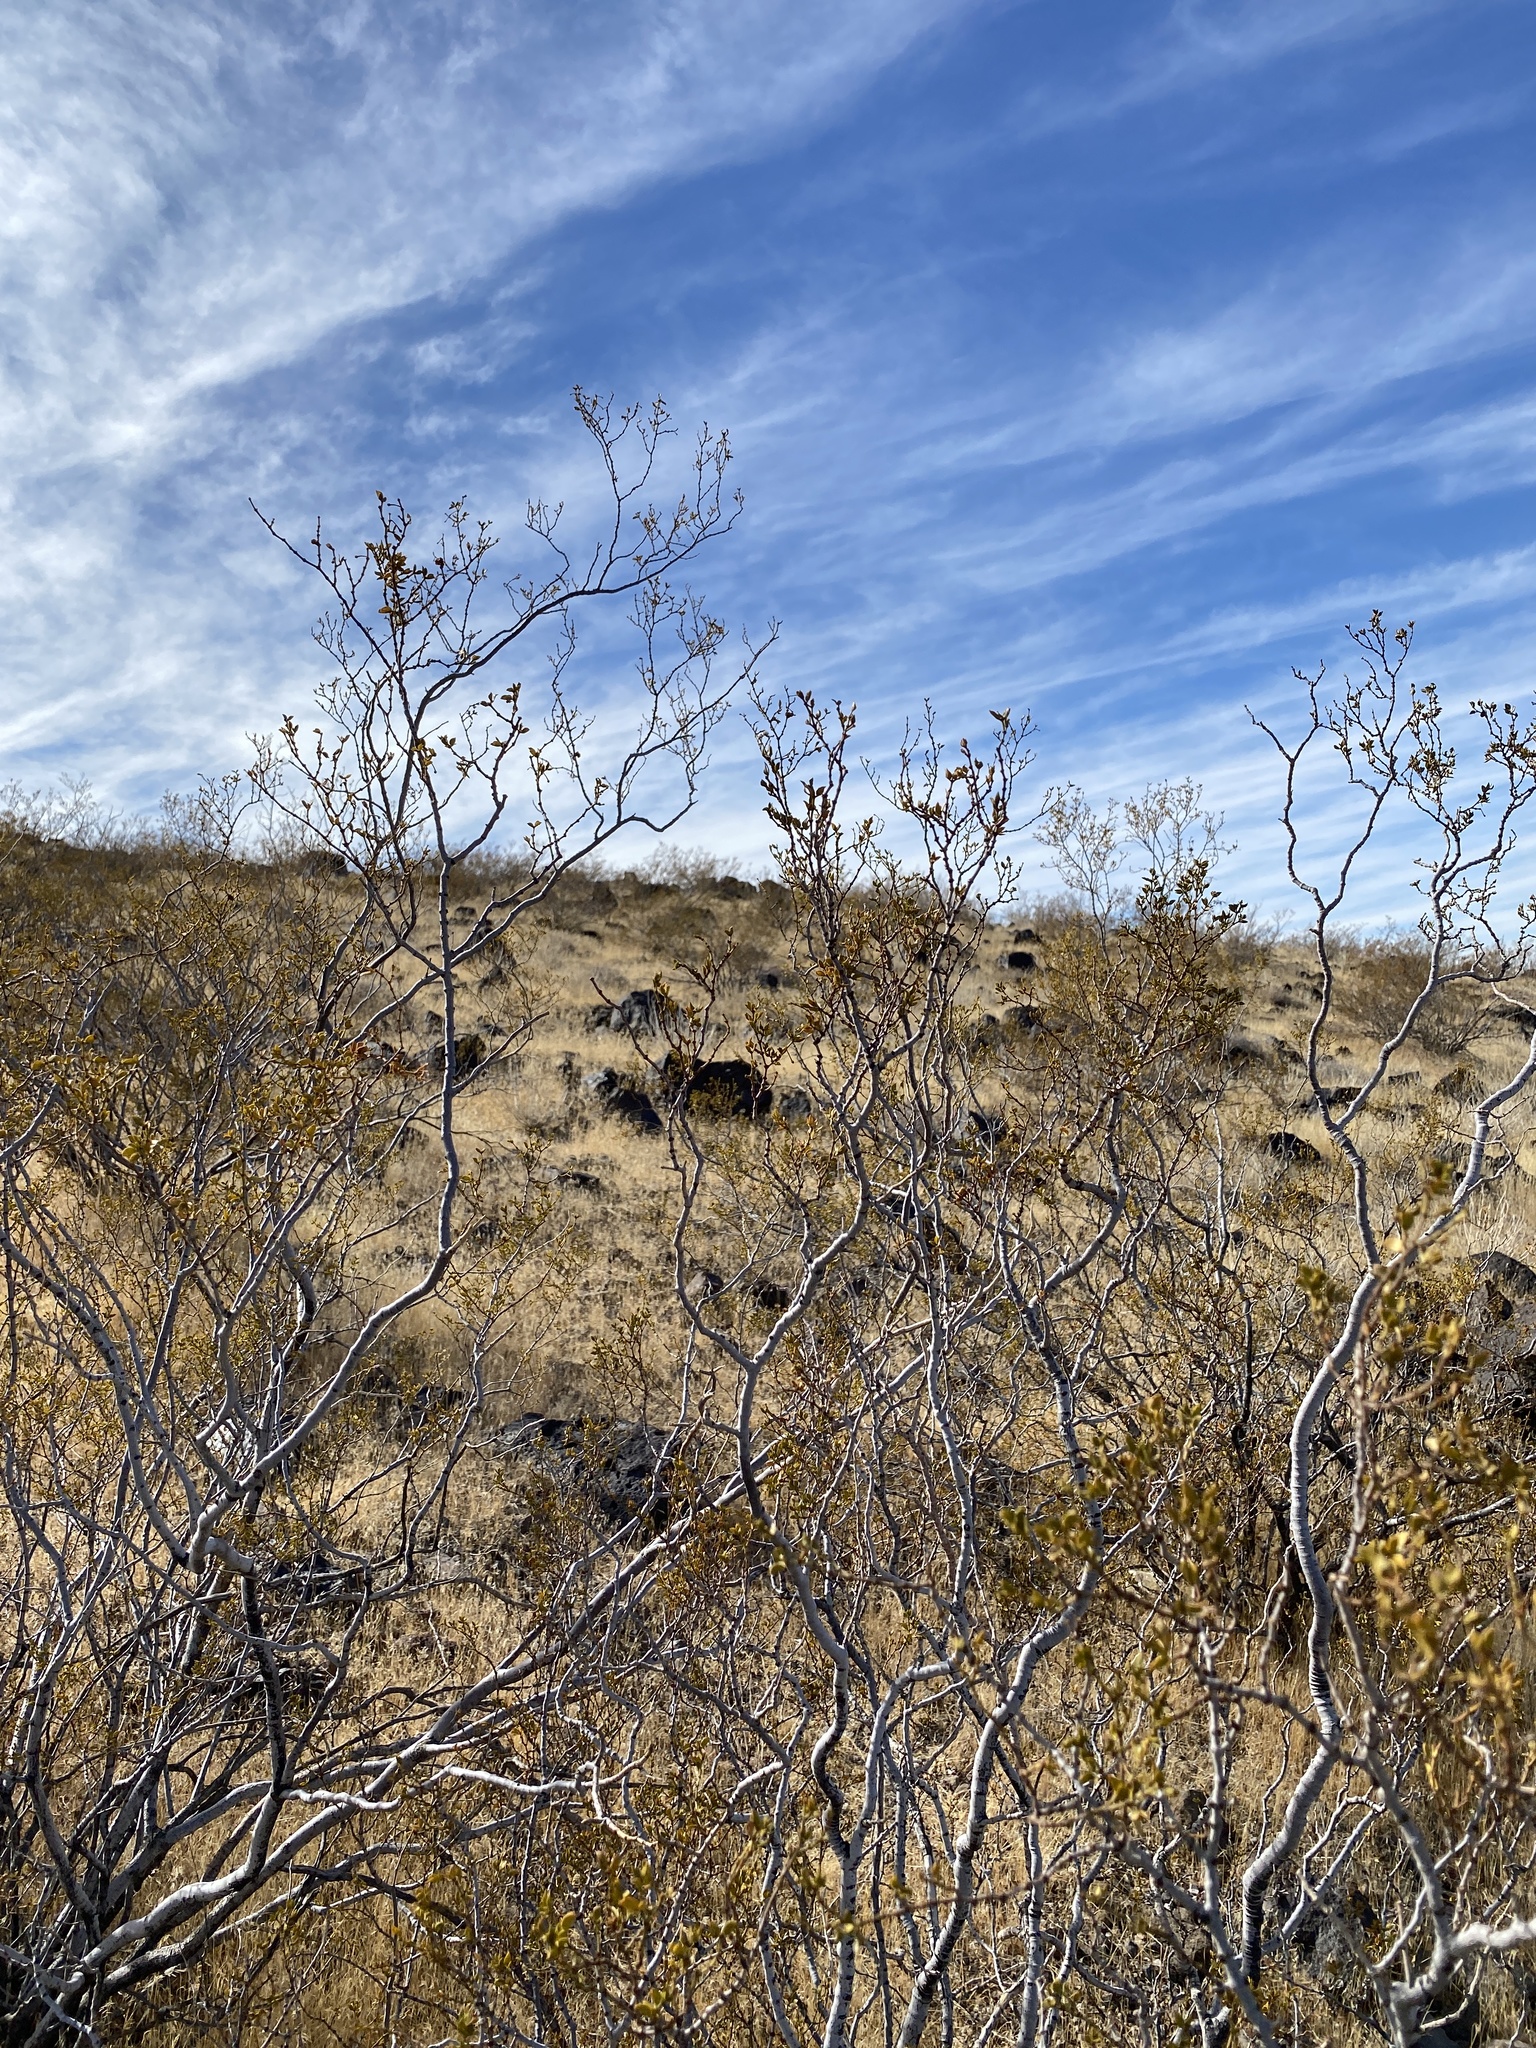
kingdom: Plantae
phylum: Tracheophyta
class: Magnoliopsida
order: Zygophyllales
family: Zygophyllaceae
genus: Larrea
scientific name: Larrea tridentata
